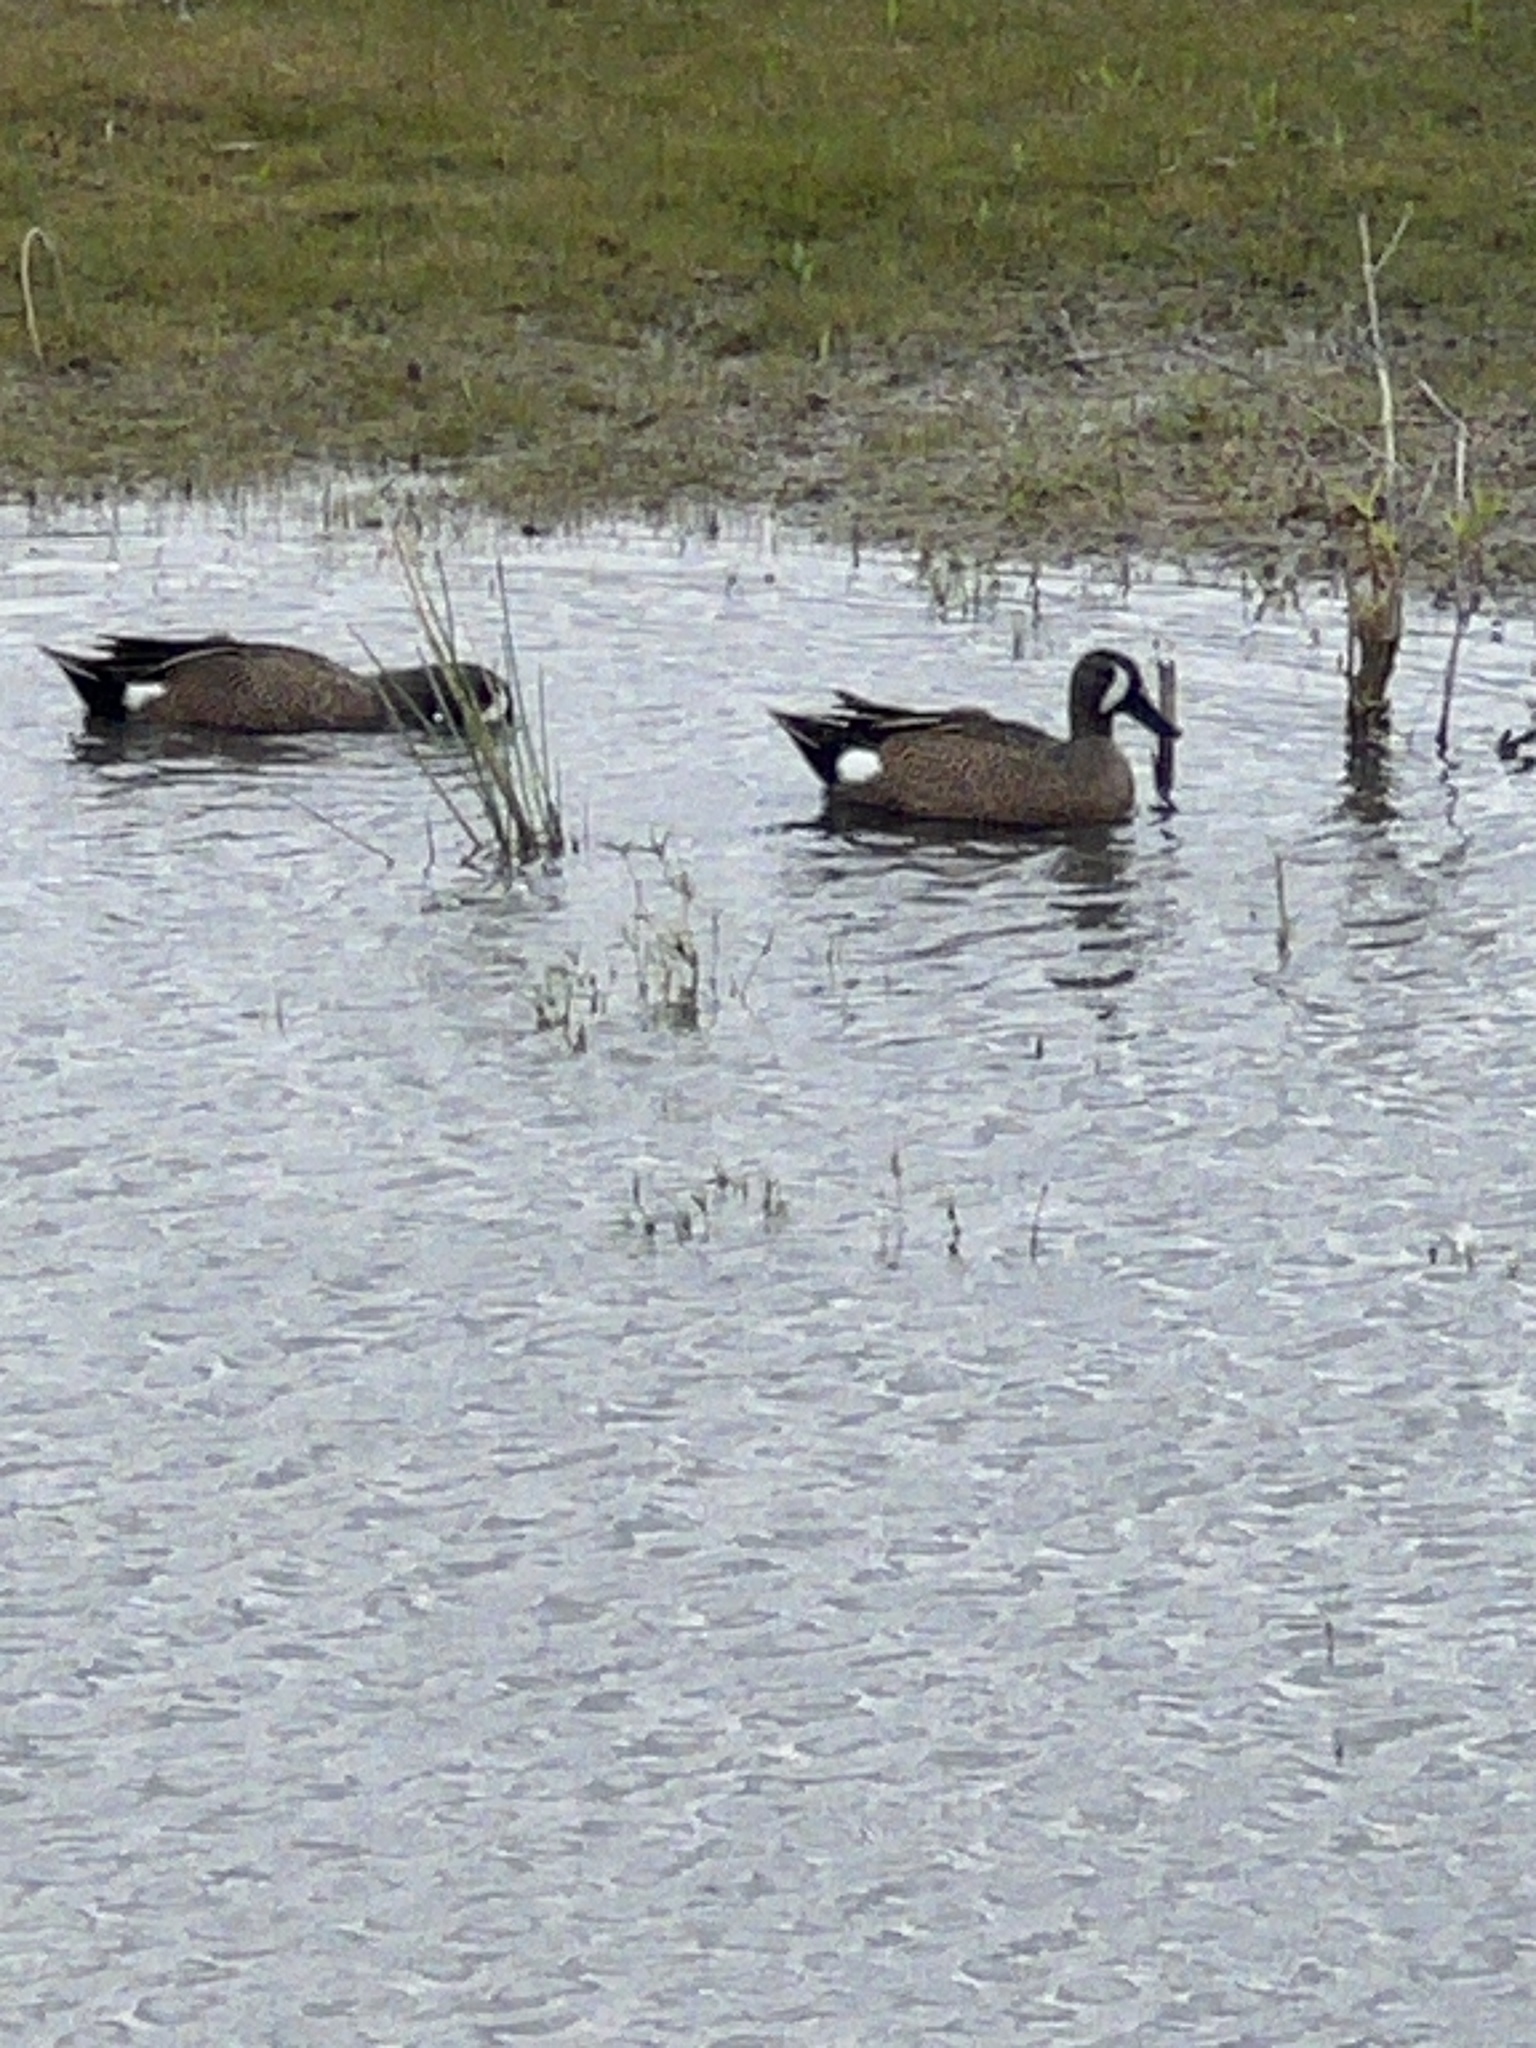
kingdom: Animalia
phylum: Chordata
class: Aves
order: Anseriformes
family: Anatidae
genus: Spatula
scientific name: Spatula discors
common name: Blue-winged teal
